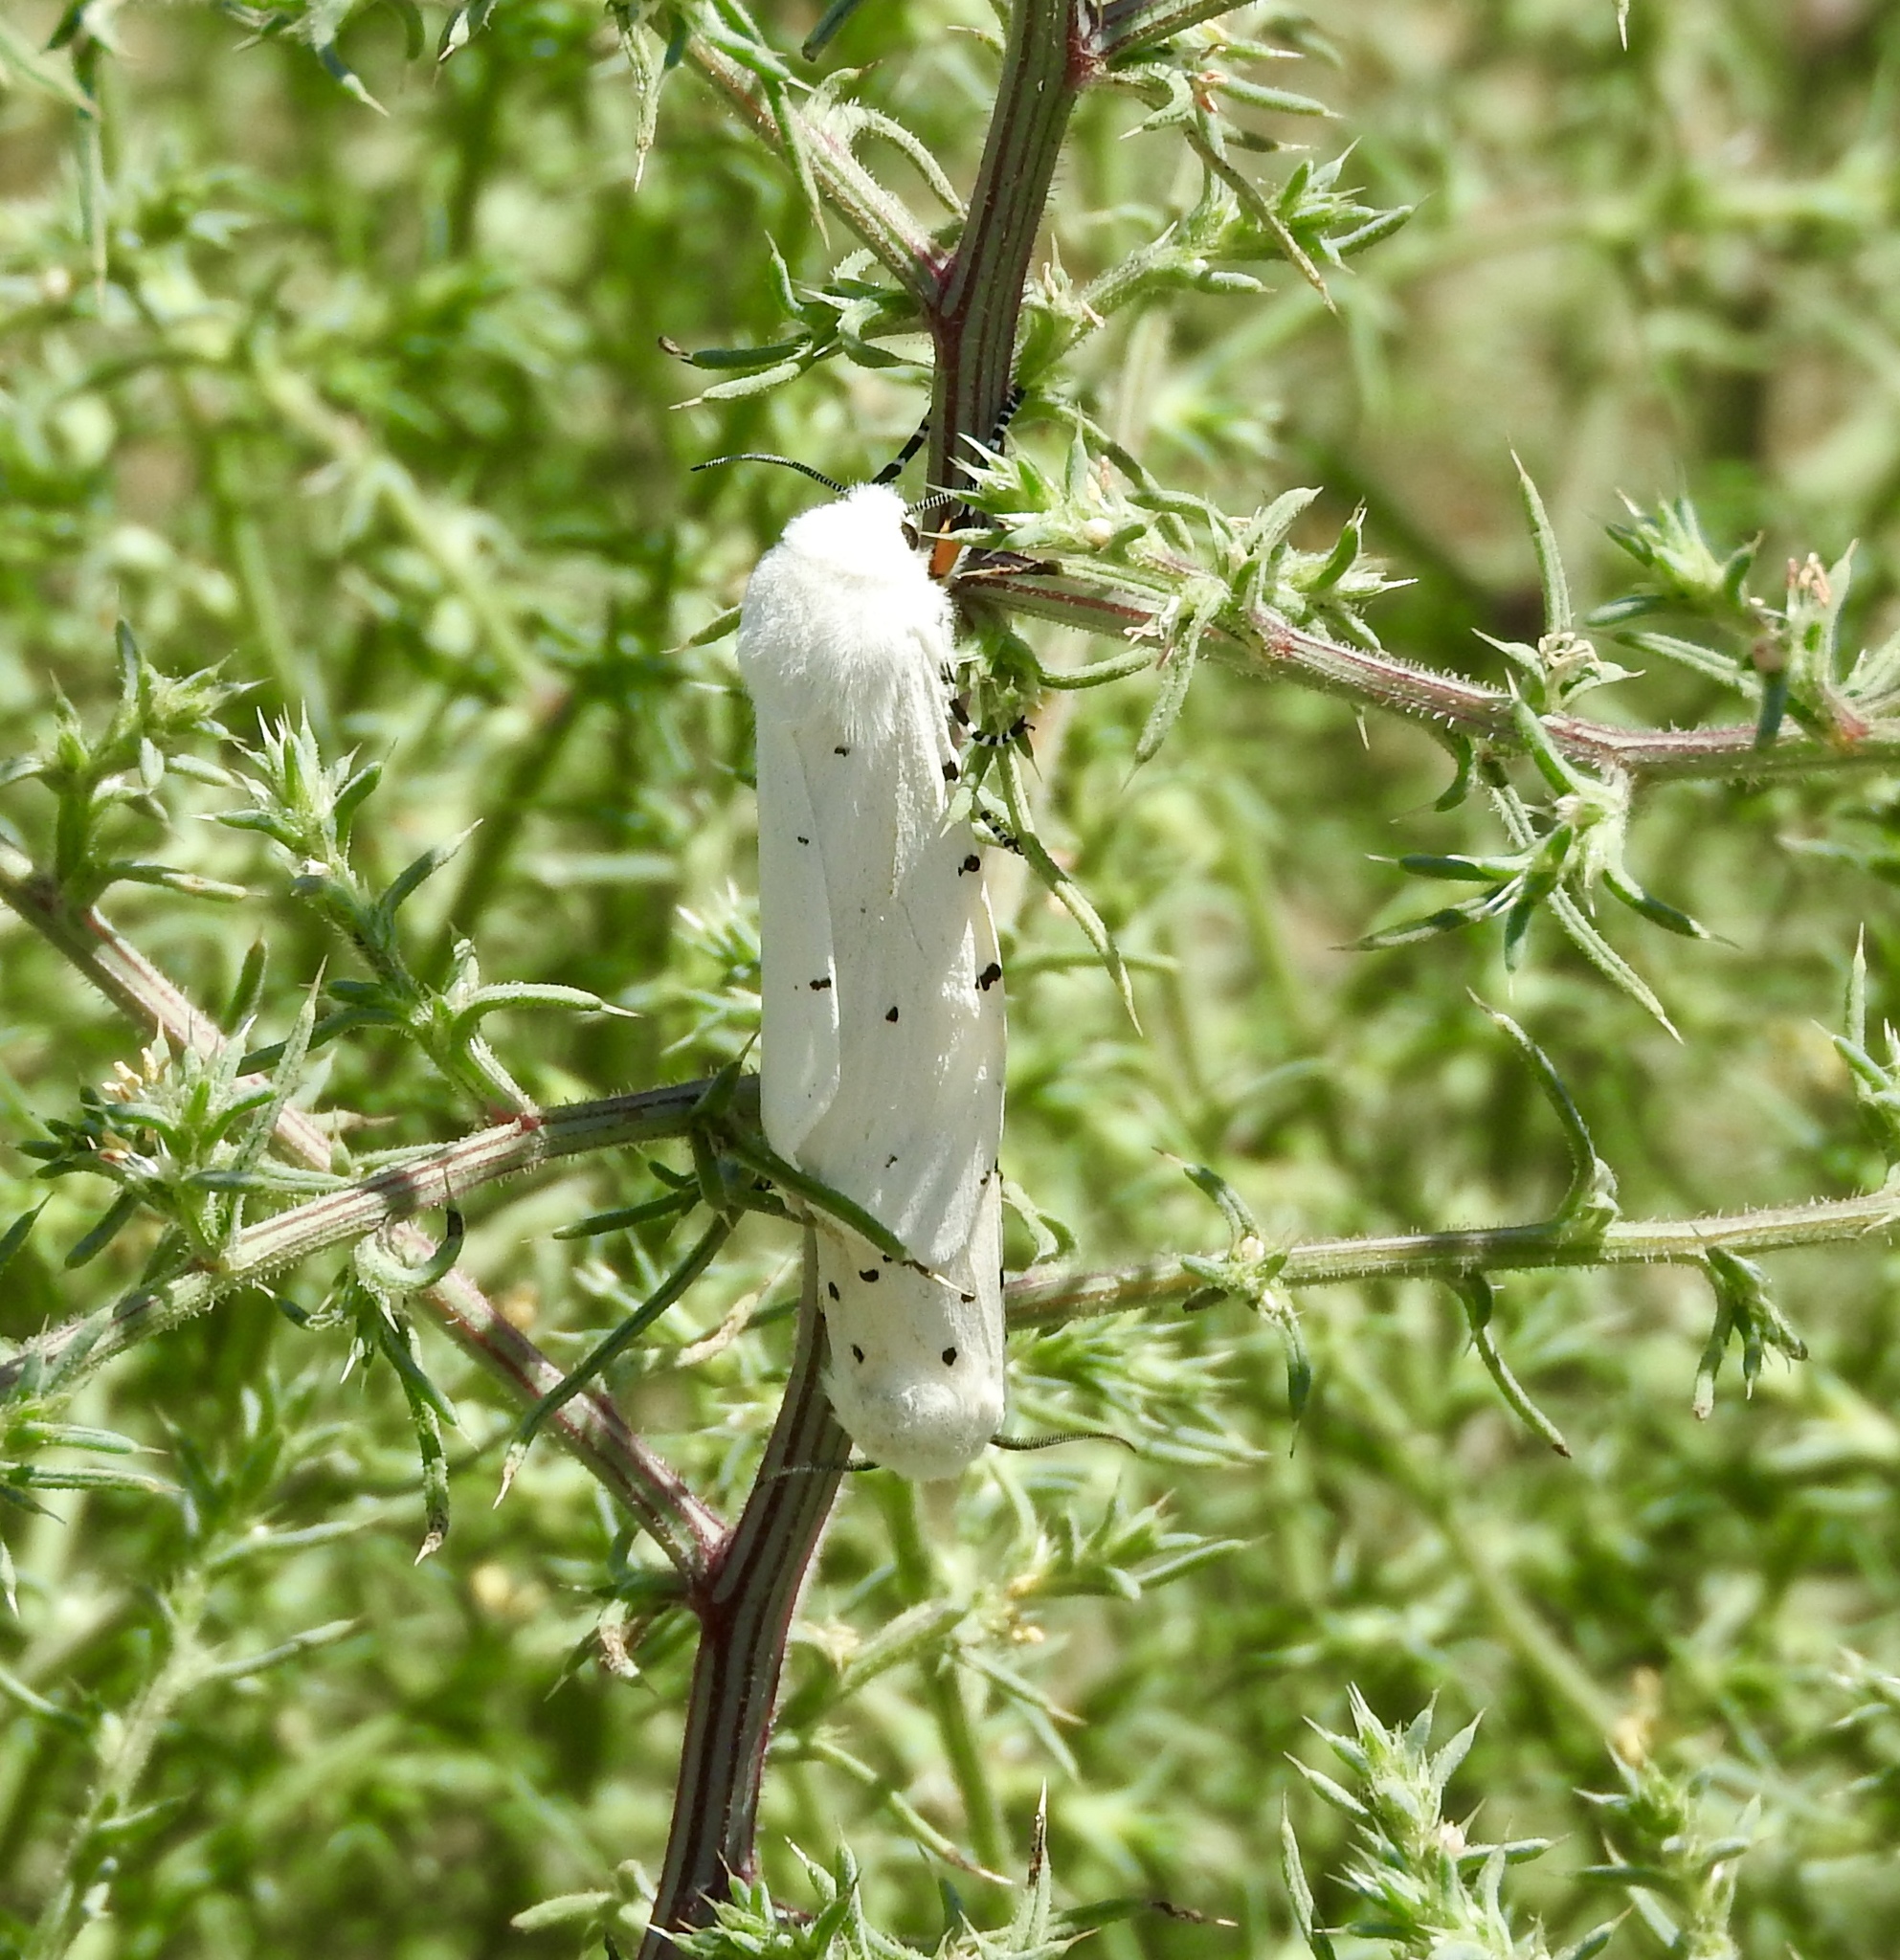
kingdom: Animalia
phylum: Arthropoda
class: Insecta
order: Lepidoptera
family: Erebidae
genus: Estigmene
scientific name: Estigmene
